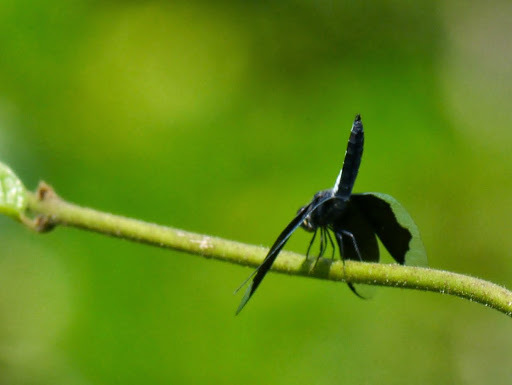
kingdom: Animalia
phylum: Arthropoda
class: Insecta
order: Odonata
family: Libellulidae
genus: Palpopleura
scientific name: Palpopleura lucia
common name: Lucia widow
